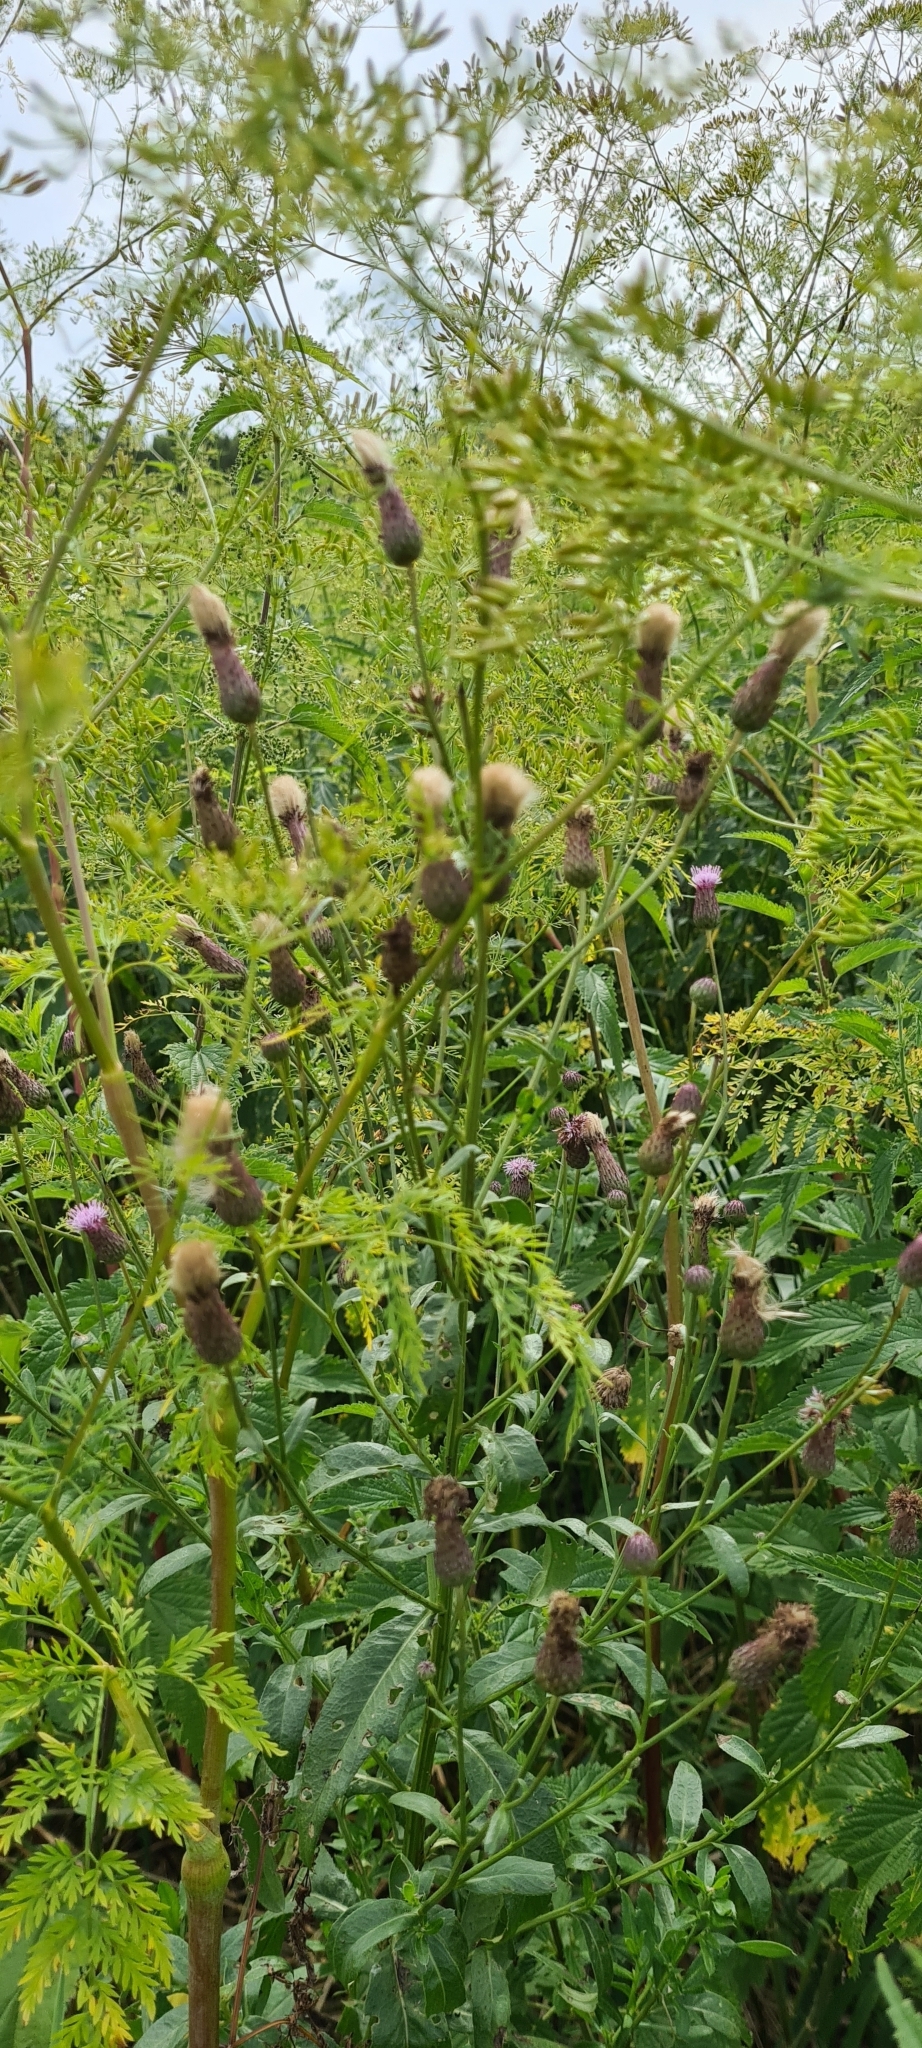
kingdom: Plantae
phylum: Tracheophyta
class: Magnoliopsida
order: Asterales
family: Asteraceae
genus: Cirsium
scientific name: Cirsium arvense
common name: Creeping thistle
